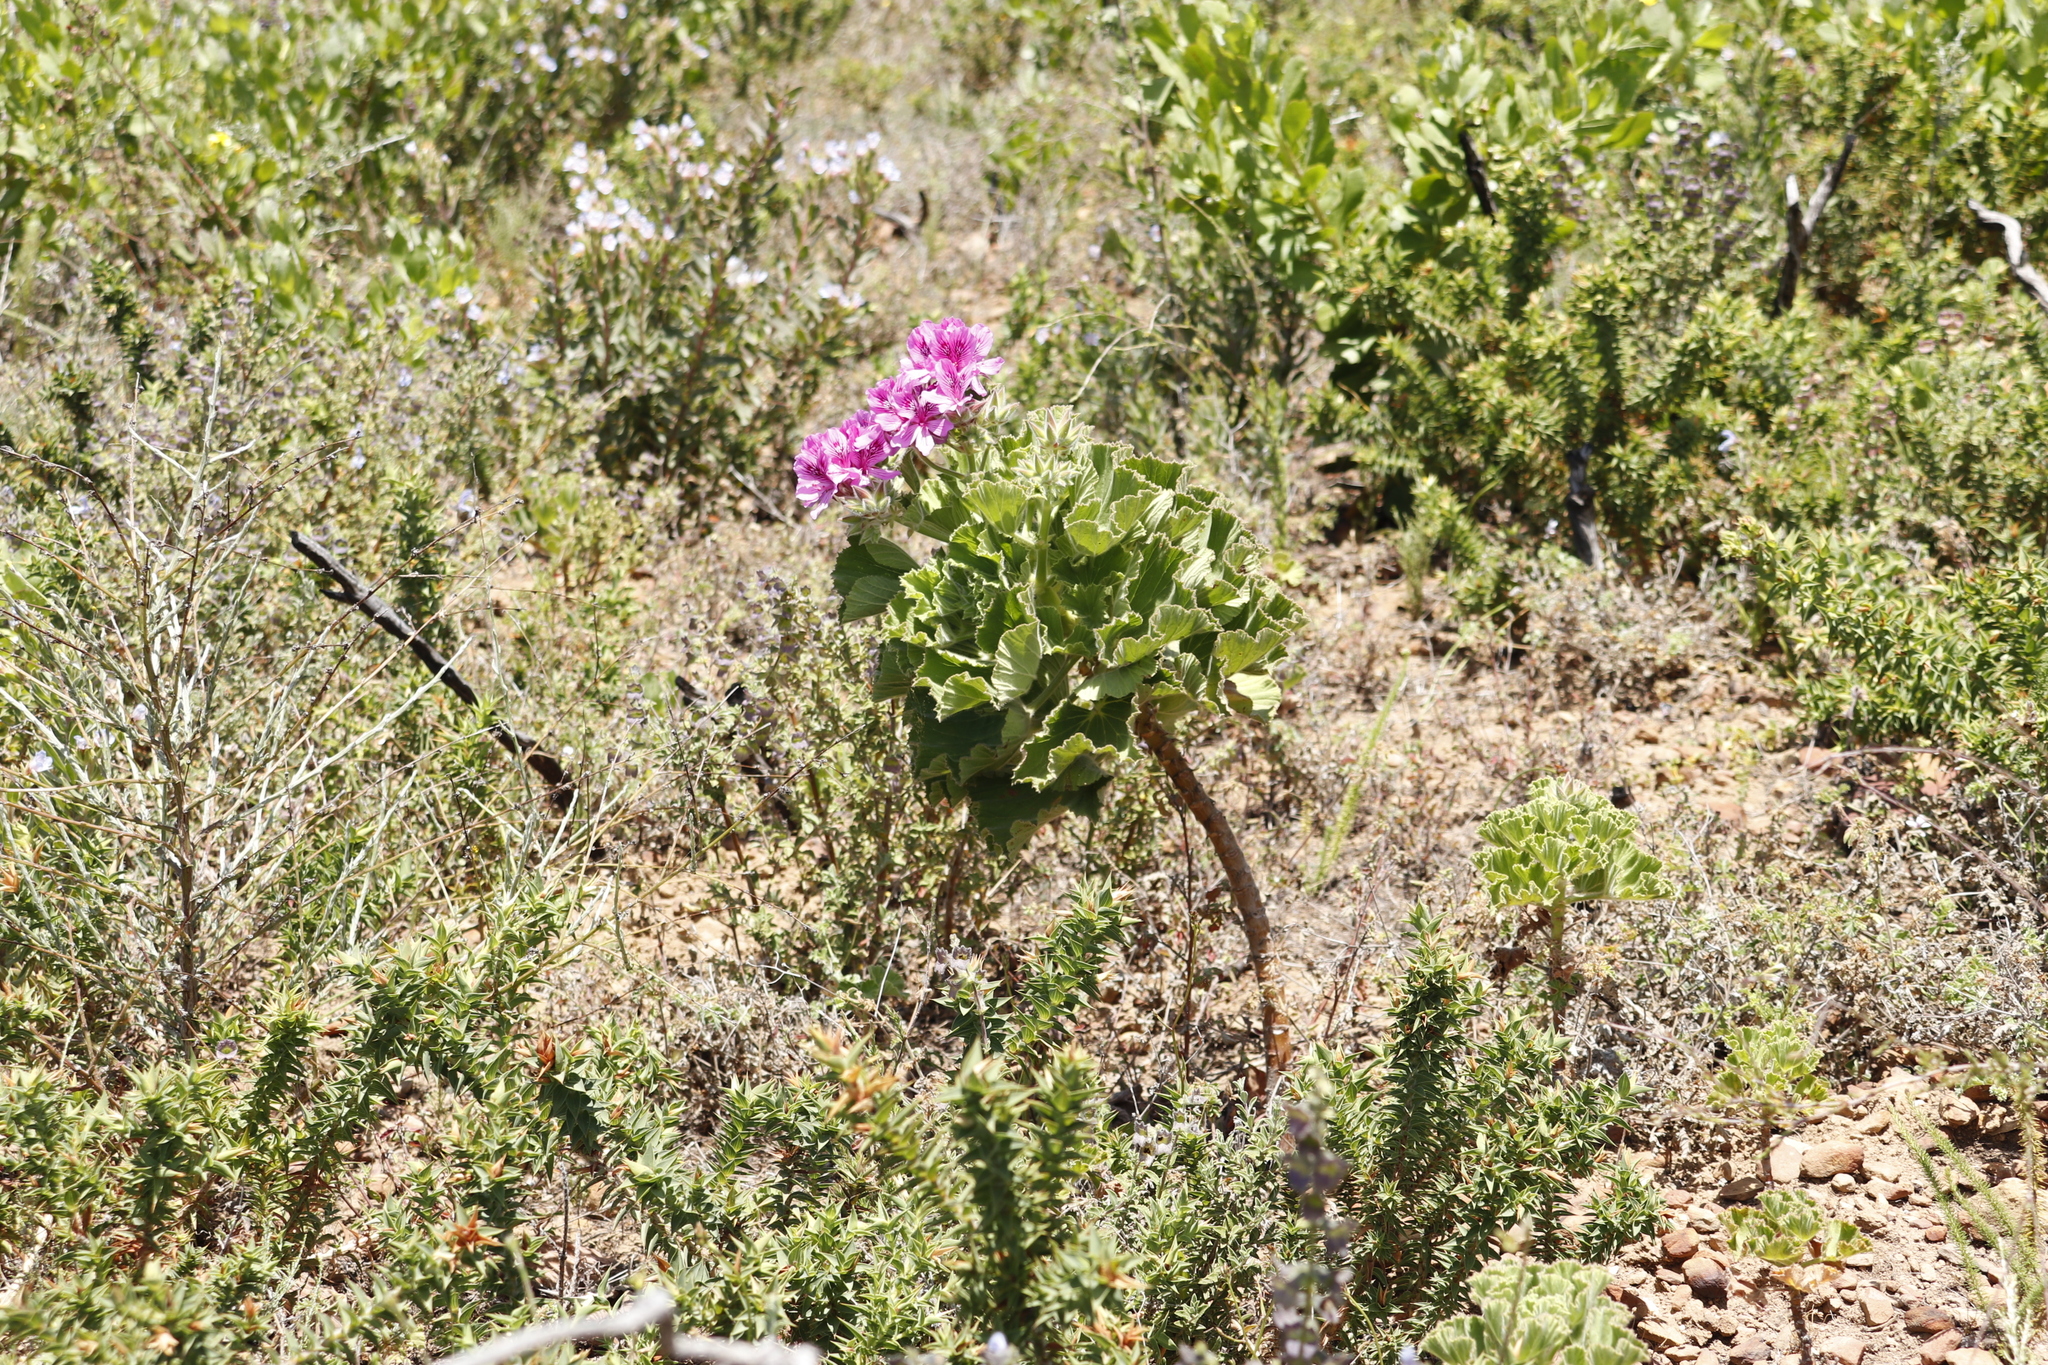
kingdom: Plantae
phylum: Tracheophyta
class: Magnoliopsida
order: Geraniales
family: Geraniaceae
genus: Pelargonium
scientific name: Pelargonium cucullatum
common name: Tree pelargonium
